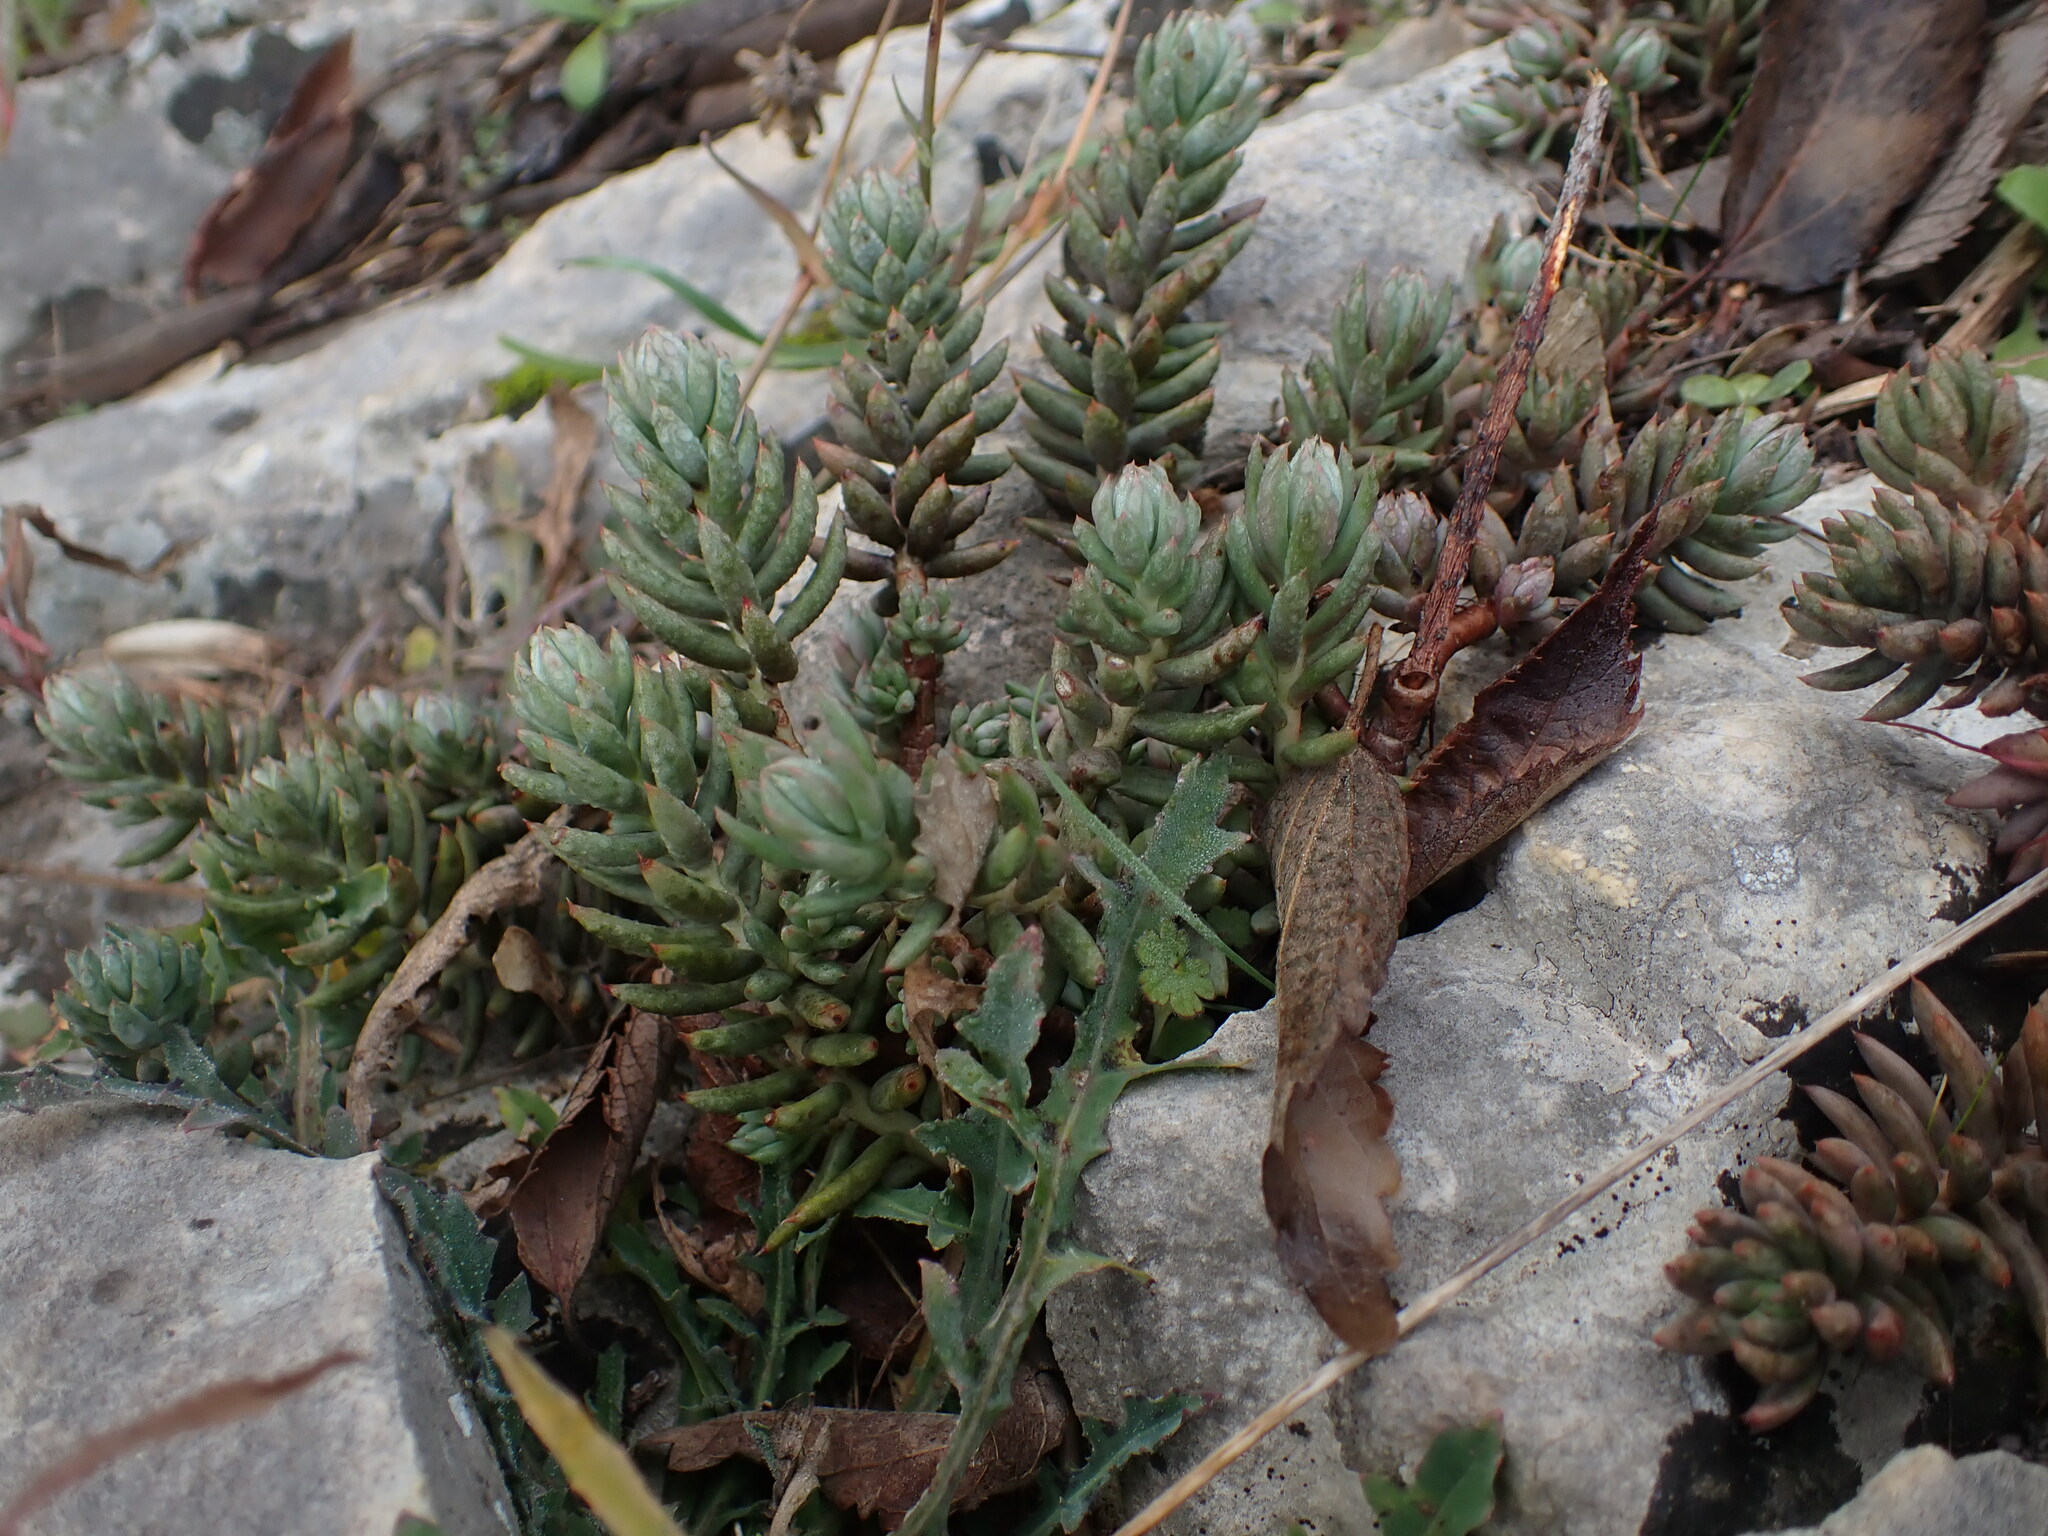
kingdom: Plantae
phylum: Tracheophyta
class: Magnoliopsida
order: Saxifragales
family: Crassulaceae
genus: Petrosedum
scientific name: Petrosedum sediforme
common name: Pale stonecrop
